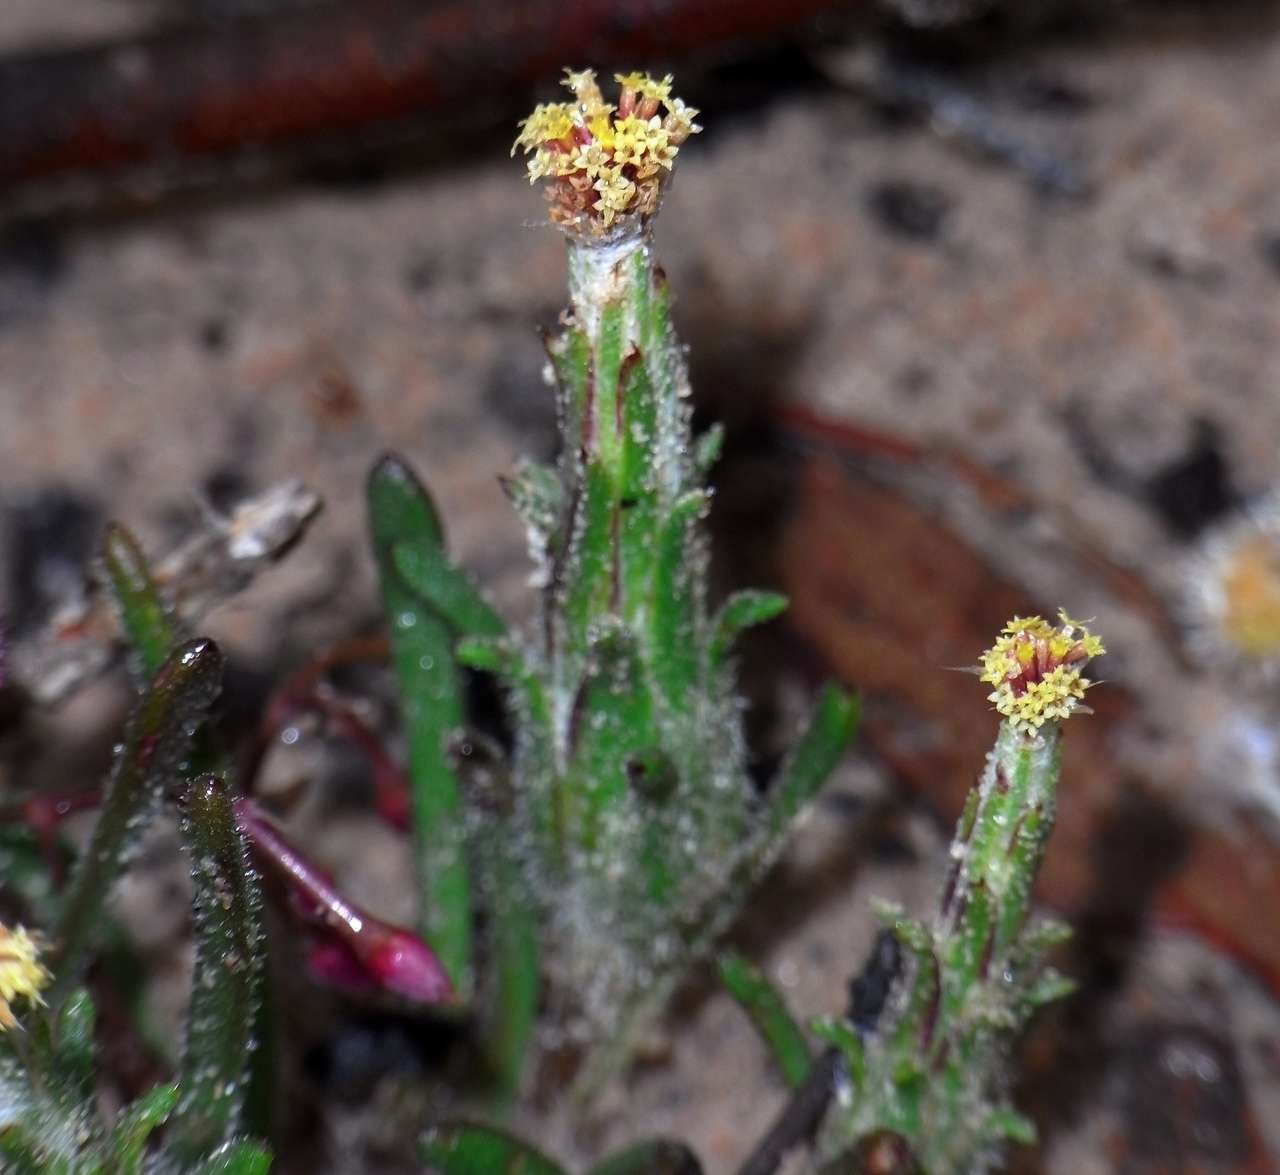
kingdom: Plantae
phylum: Tracheophyta
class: Magnoliopsida
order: Asterales
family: Asteraceae
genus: Podotheca
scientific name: Podotheca angustifolia
